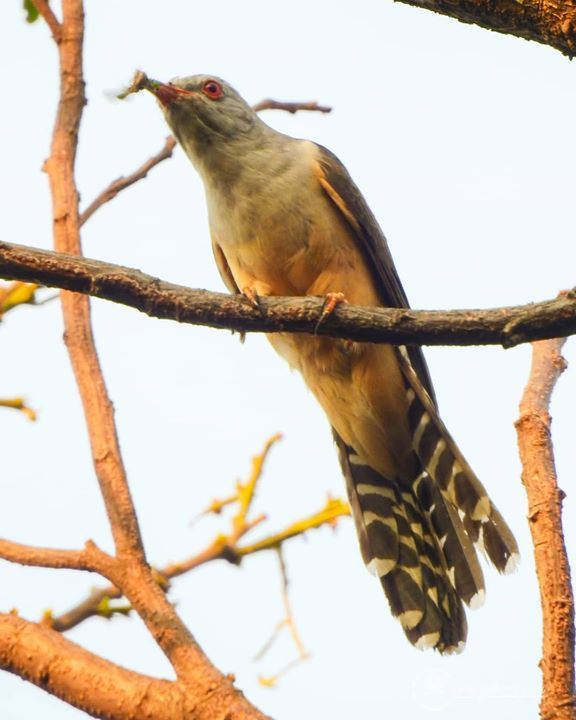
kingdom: Animalia
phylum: Chordata
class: Aves
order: Cuculiformes
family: Cuculidae
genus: Cacomantis
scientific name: Cacomantis merulinus
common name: Plaintive cuckoo
